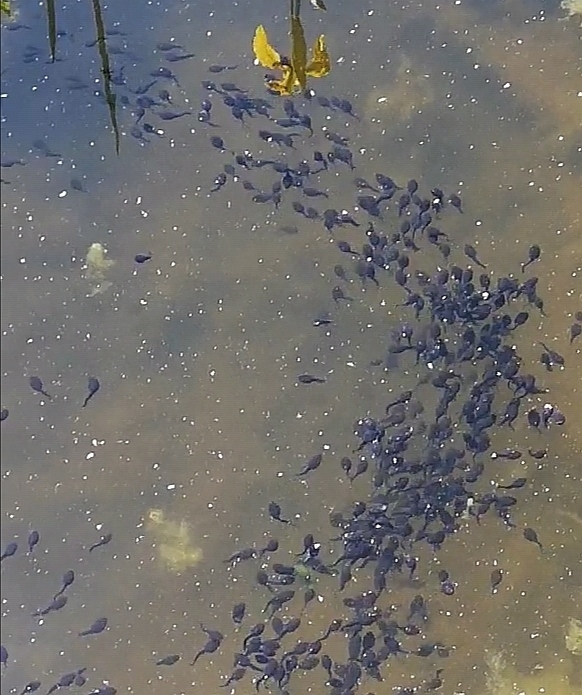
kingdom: Animalia
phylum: Chordata
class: Amphibia
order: Anura
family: Bufonidae
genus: Bufo
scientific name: Bufo bufo
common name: Common toad
